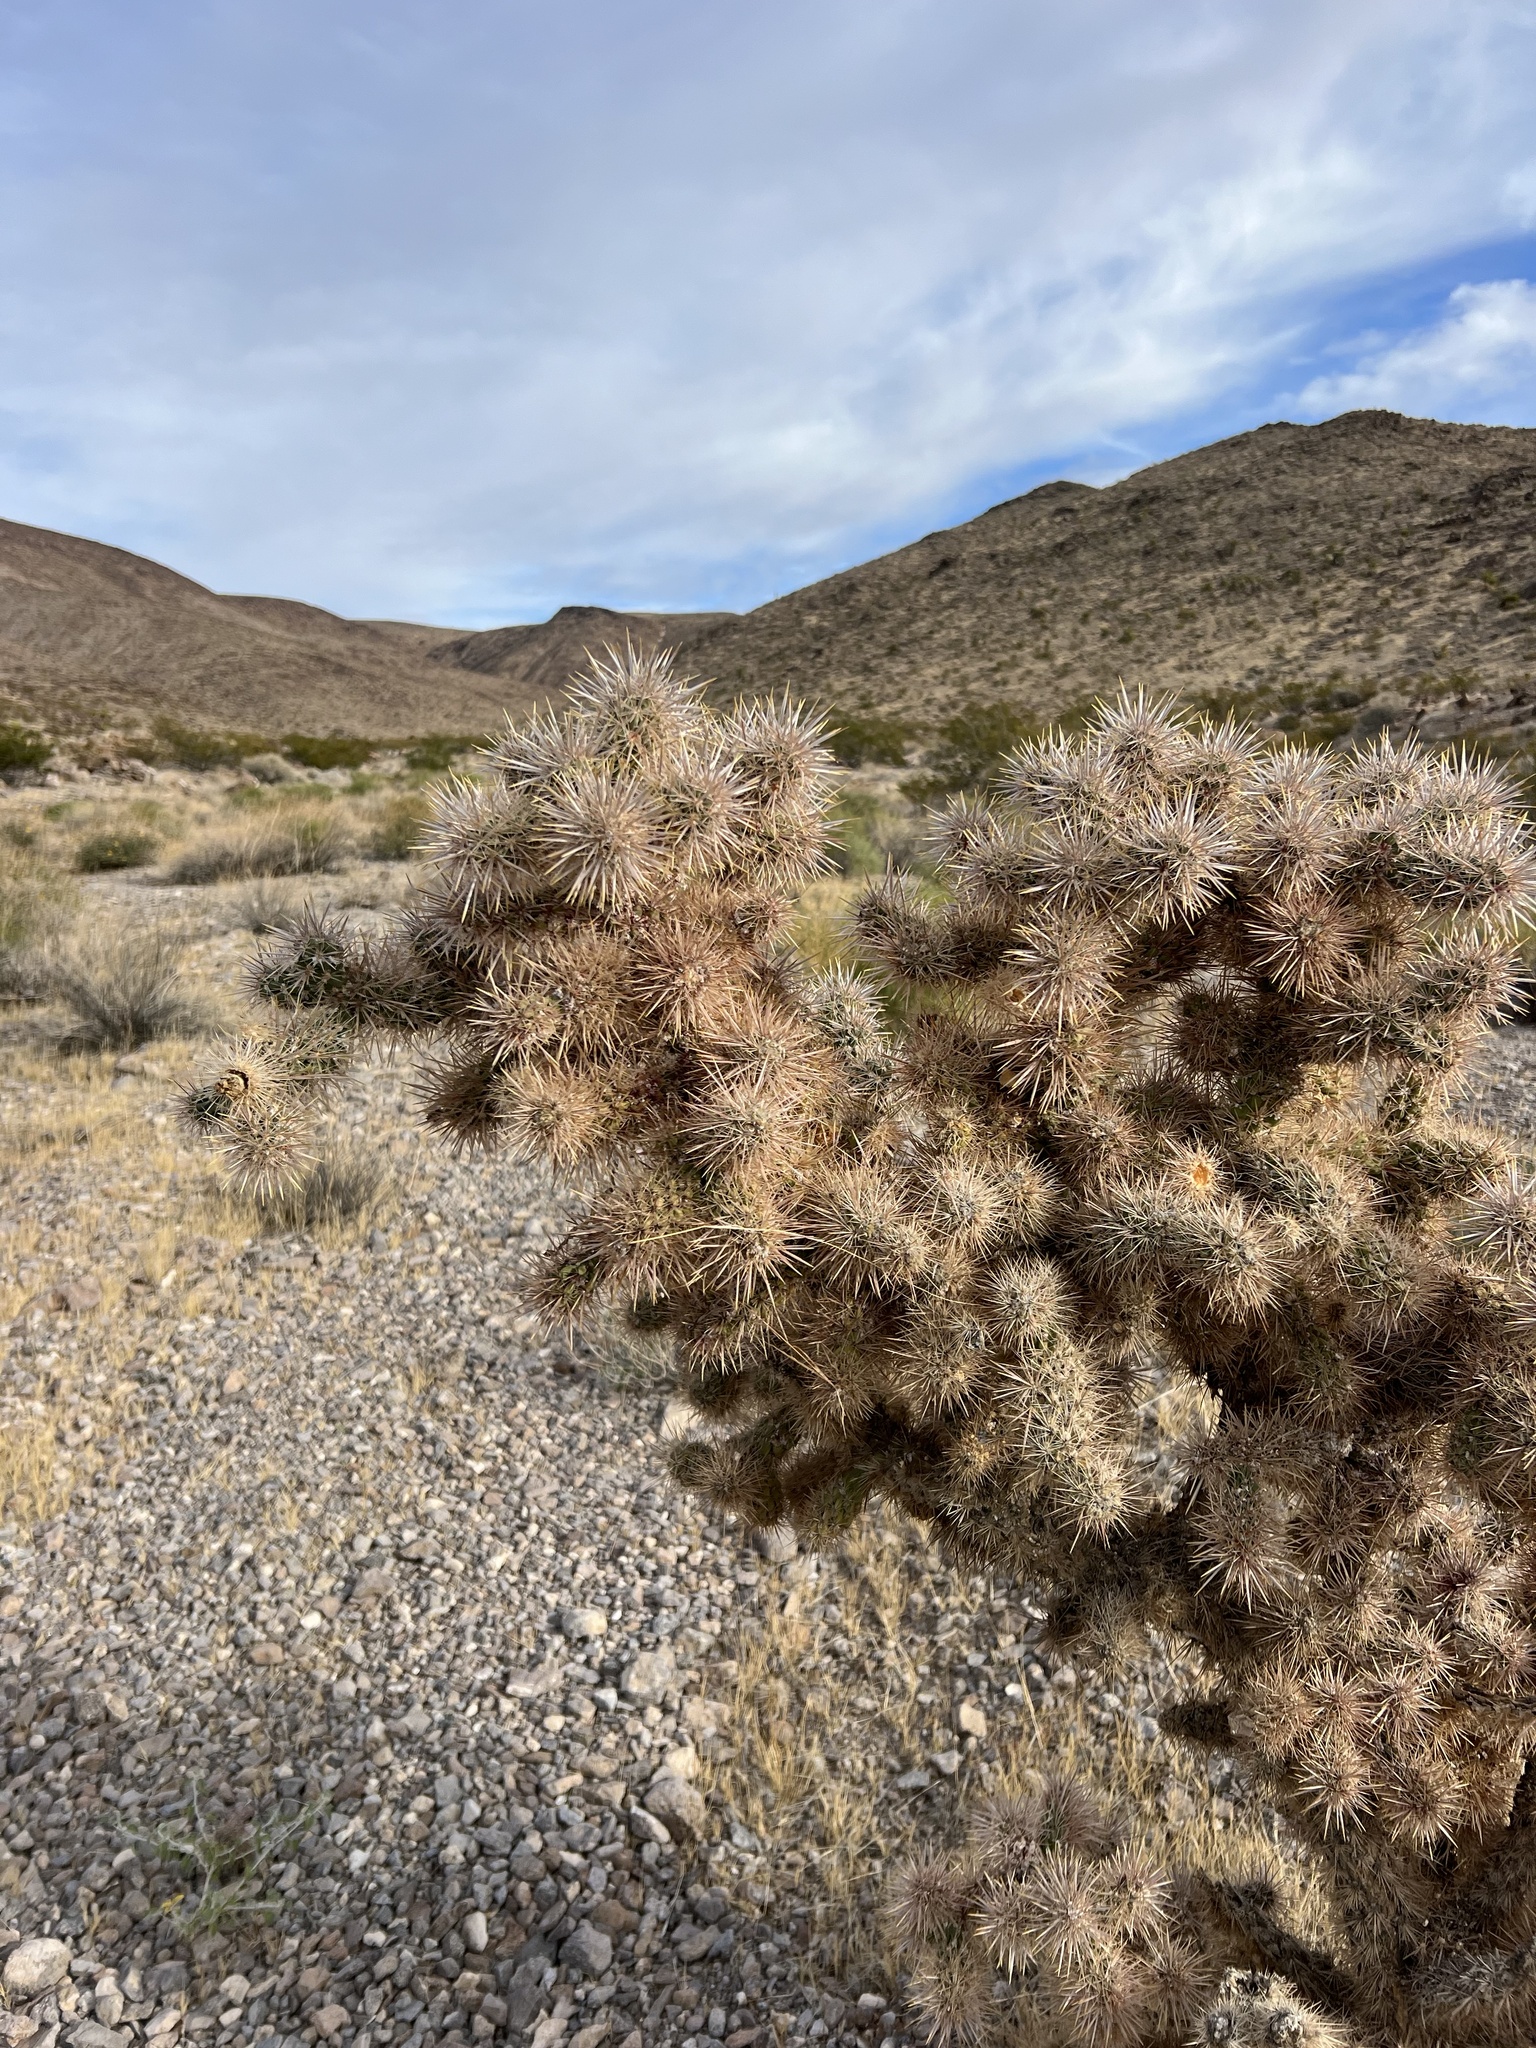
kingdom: Plantae
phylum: Tracheophyta
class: Magnoliopsida
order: Caryophyllales
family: Cactaceae
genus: Cylindropuntia
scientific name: Cylindropuntia echinocarpa
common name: Ground cholla
